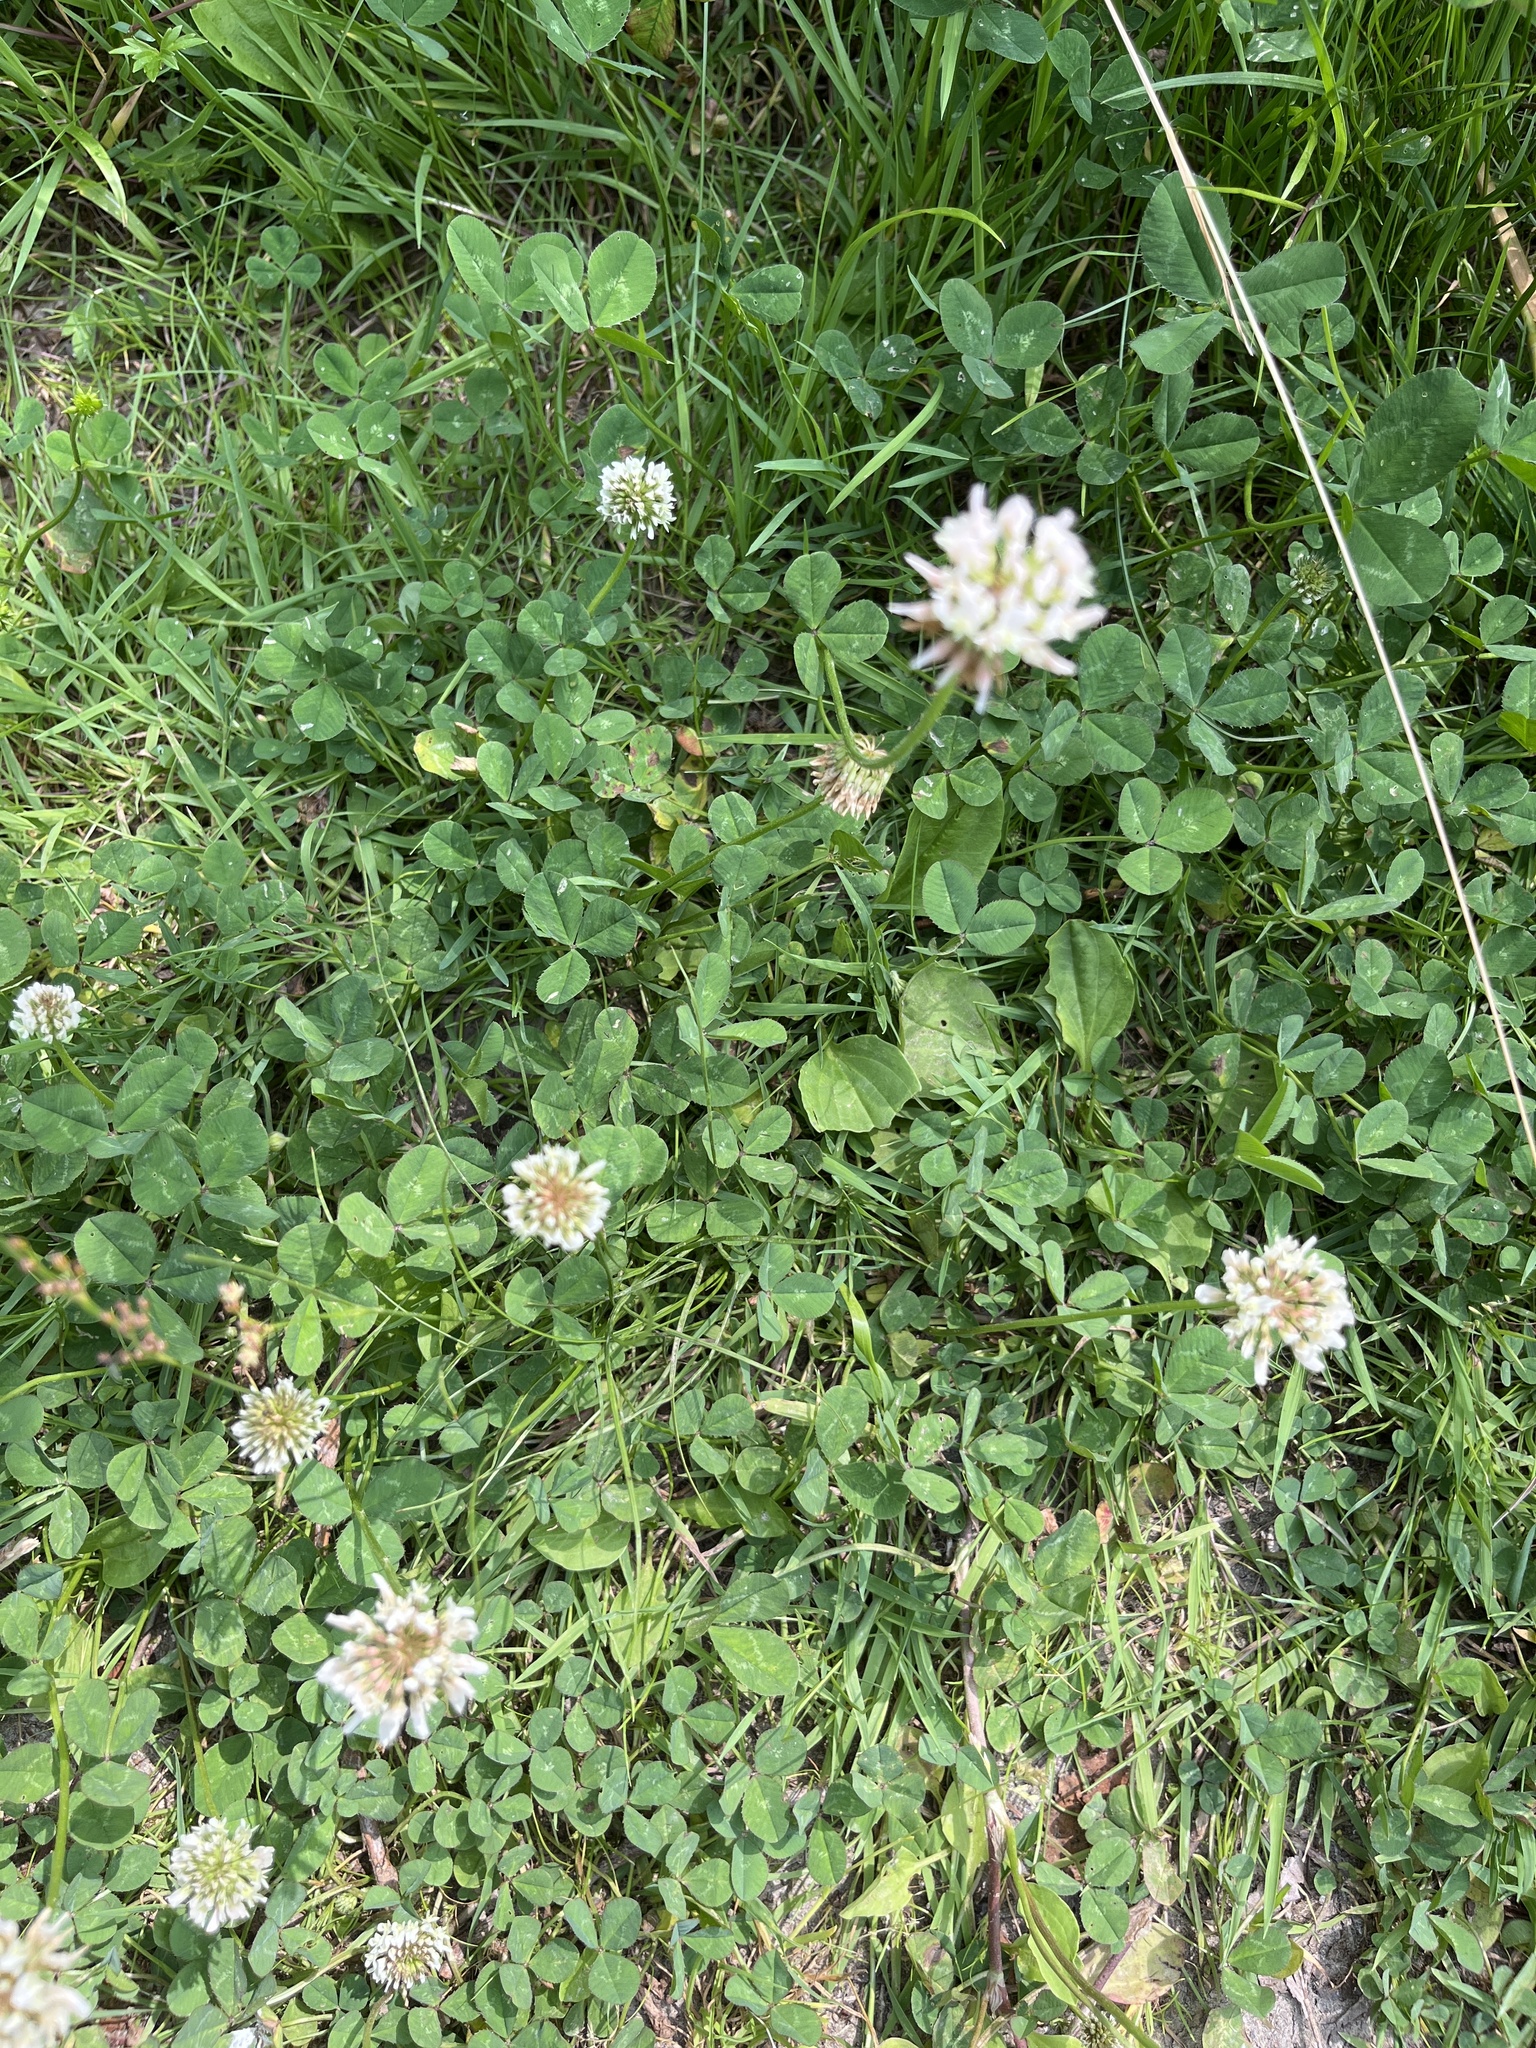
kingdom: Plantae
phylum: Tracheophyta
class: Magnoliopsida
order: Fabales
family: Fabaceae
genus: Trifolium
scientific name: Trifolium repens
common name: White clover
